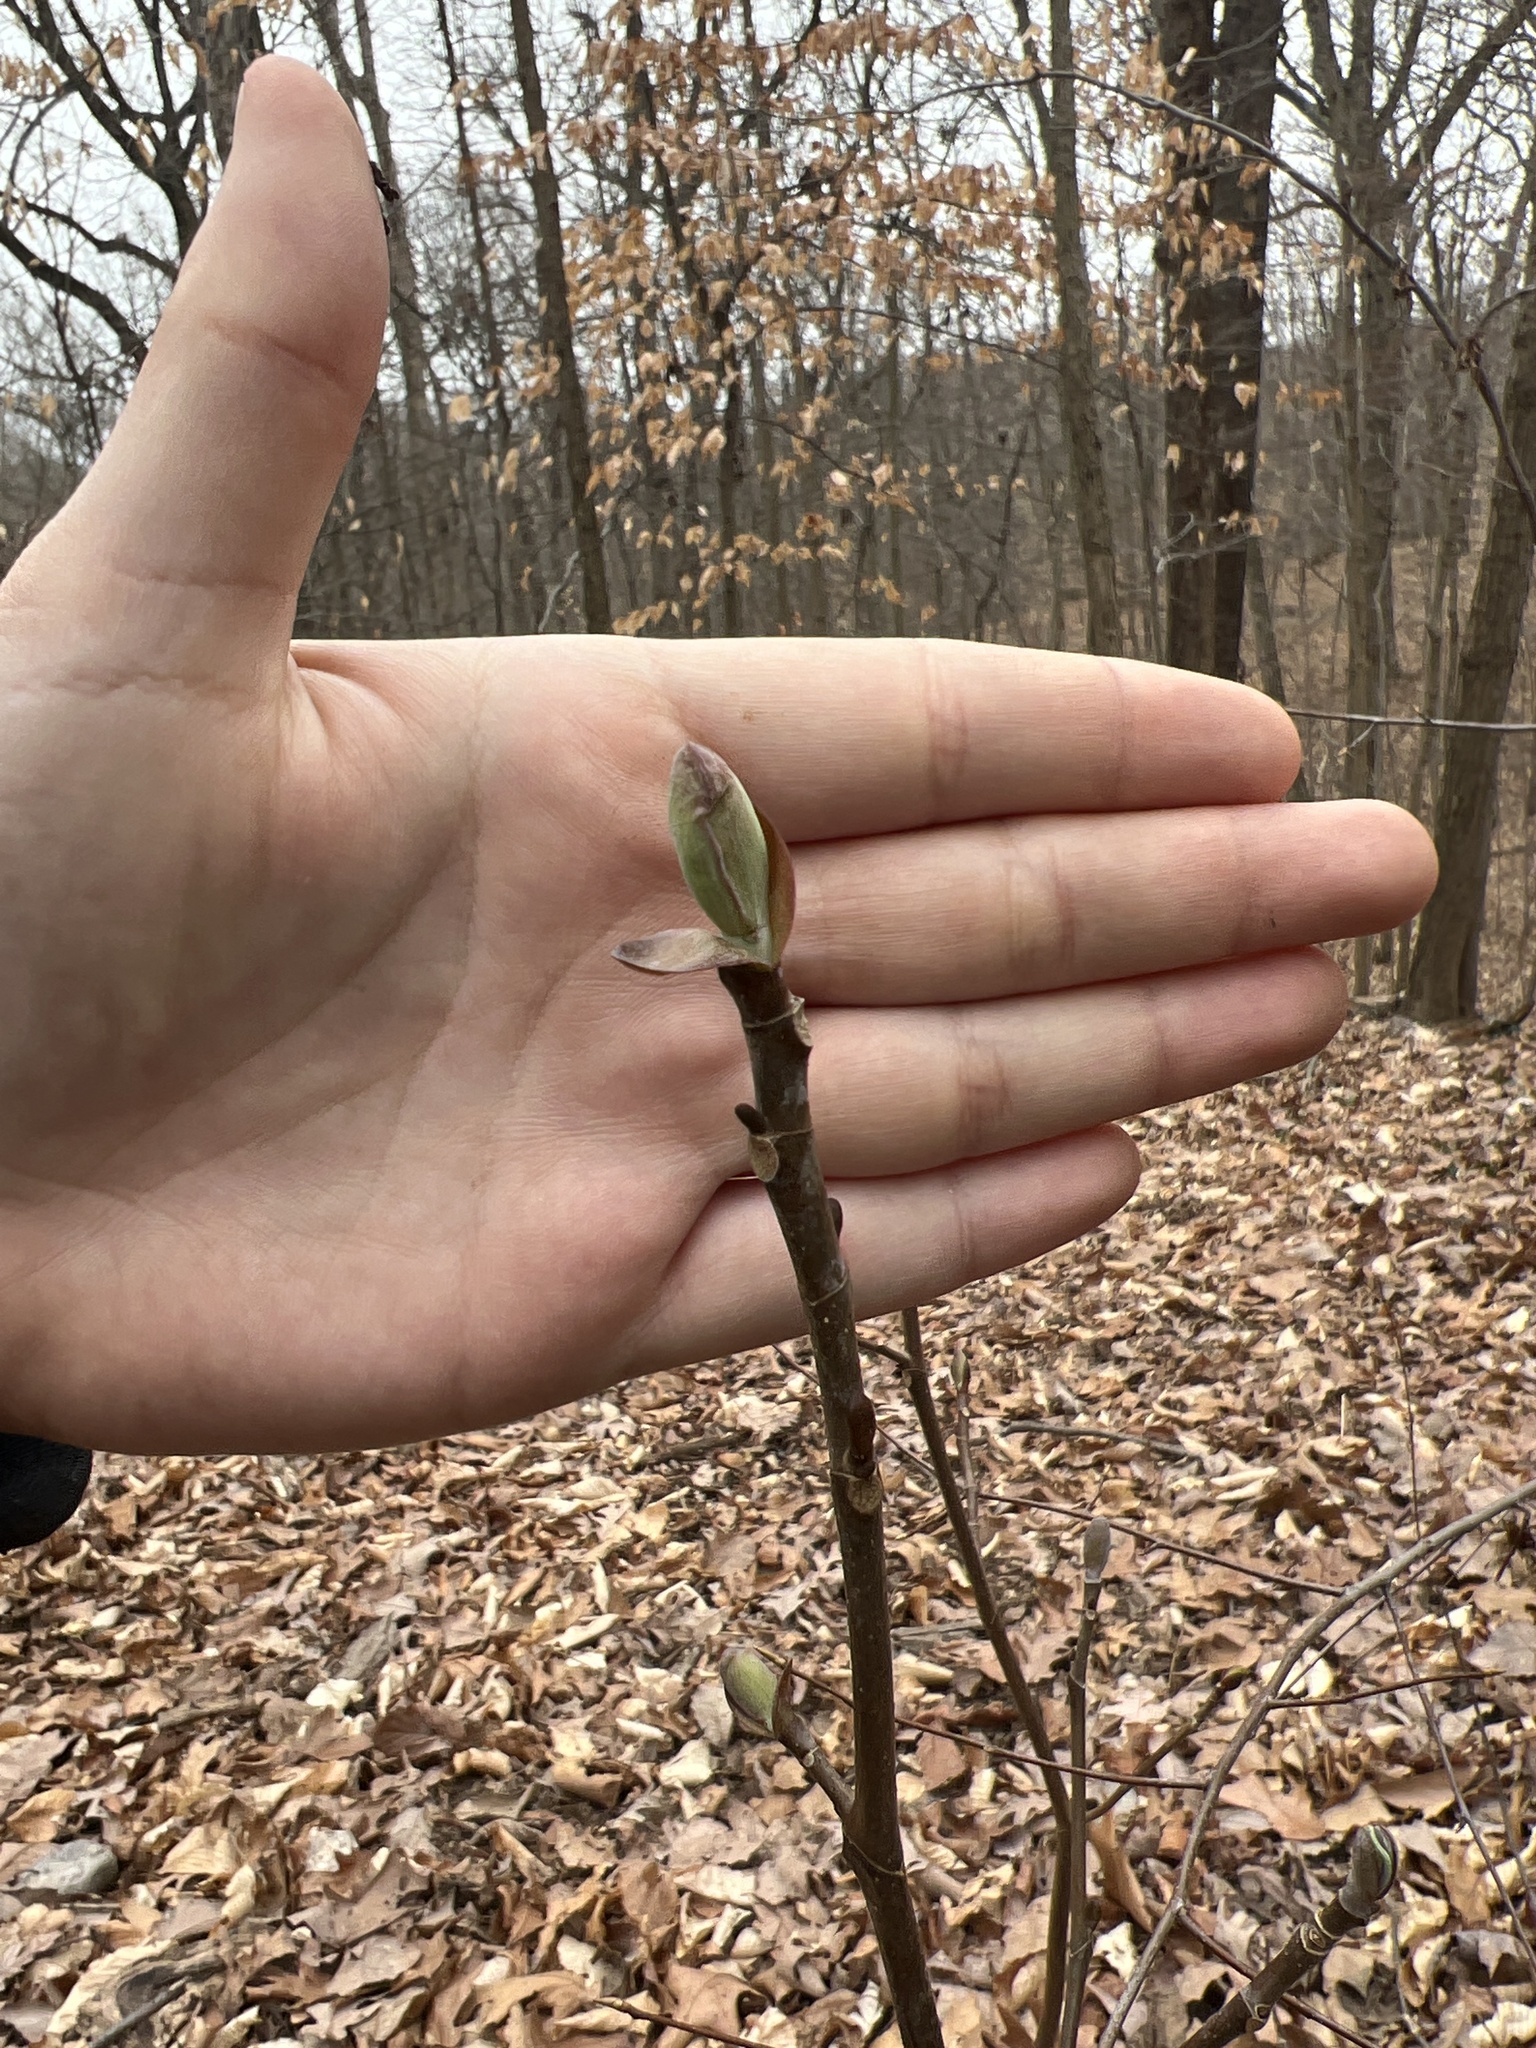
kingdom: Plantae
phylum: Tracheophyta
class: Magnoliopsida
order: Magnoliales
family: Magnoliaceae
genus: Liriodendron
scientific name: Liriodendron tulipifera
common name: Tulip tree
